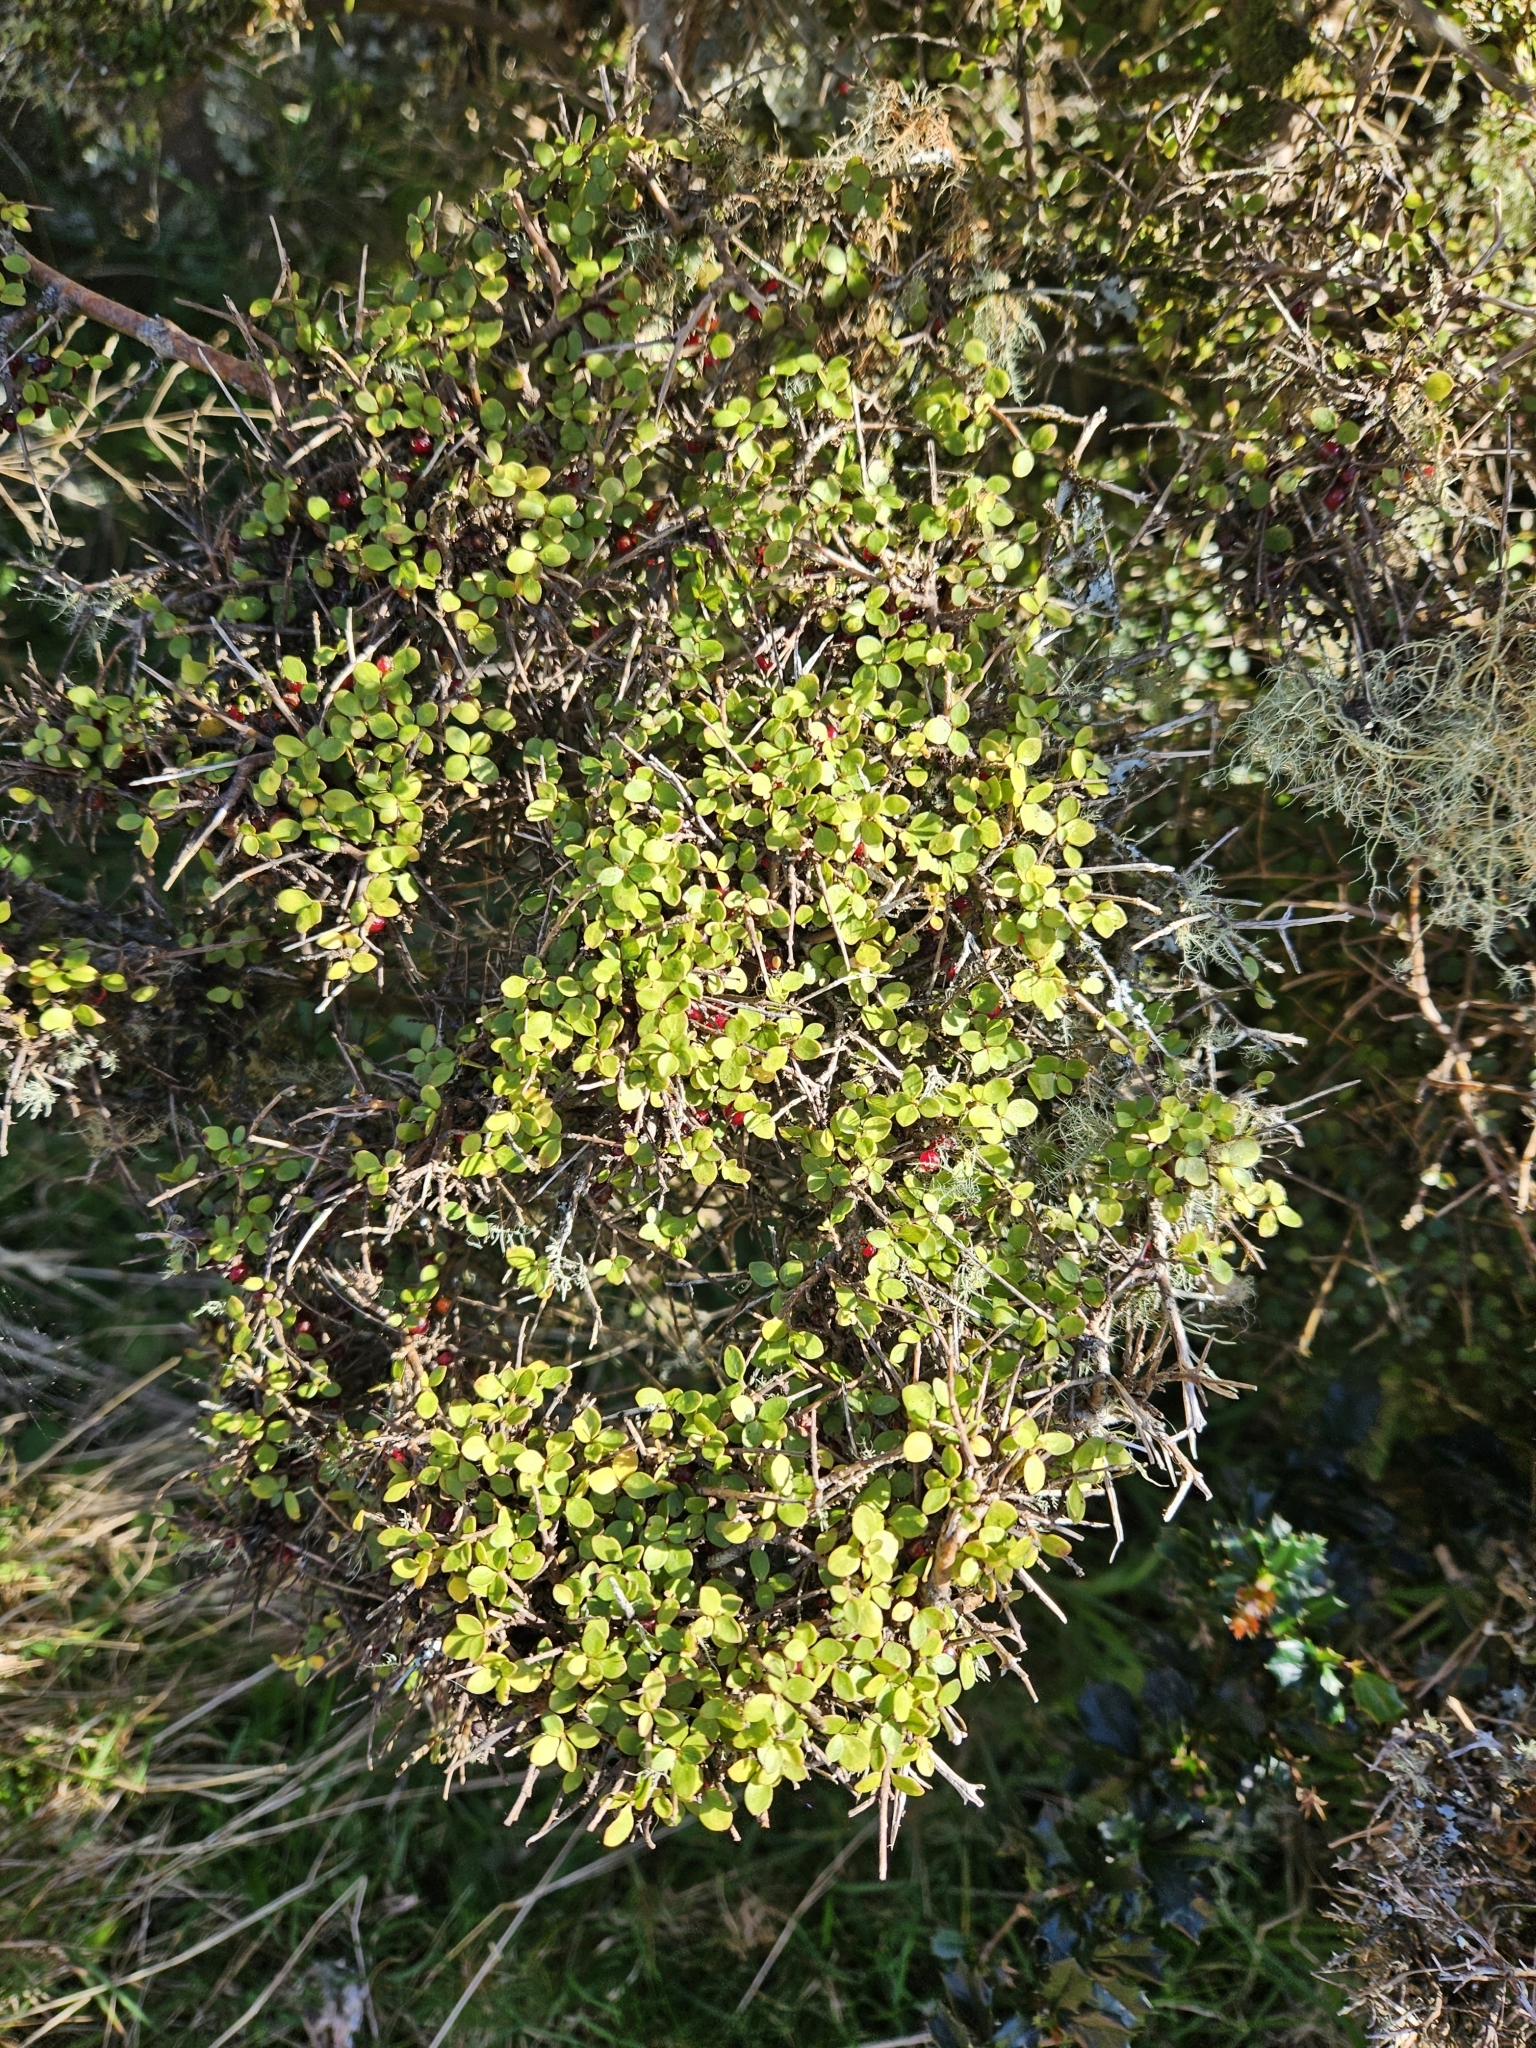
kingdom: Plantae
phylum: Tracheophyta
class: Magnoliopsida
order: Gentianales
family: Rubiaceae
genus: Coprosma
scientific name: Coprosma rhamnoides
